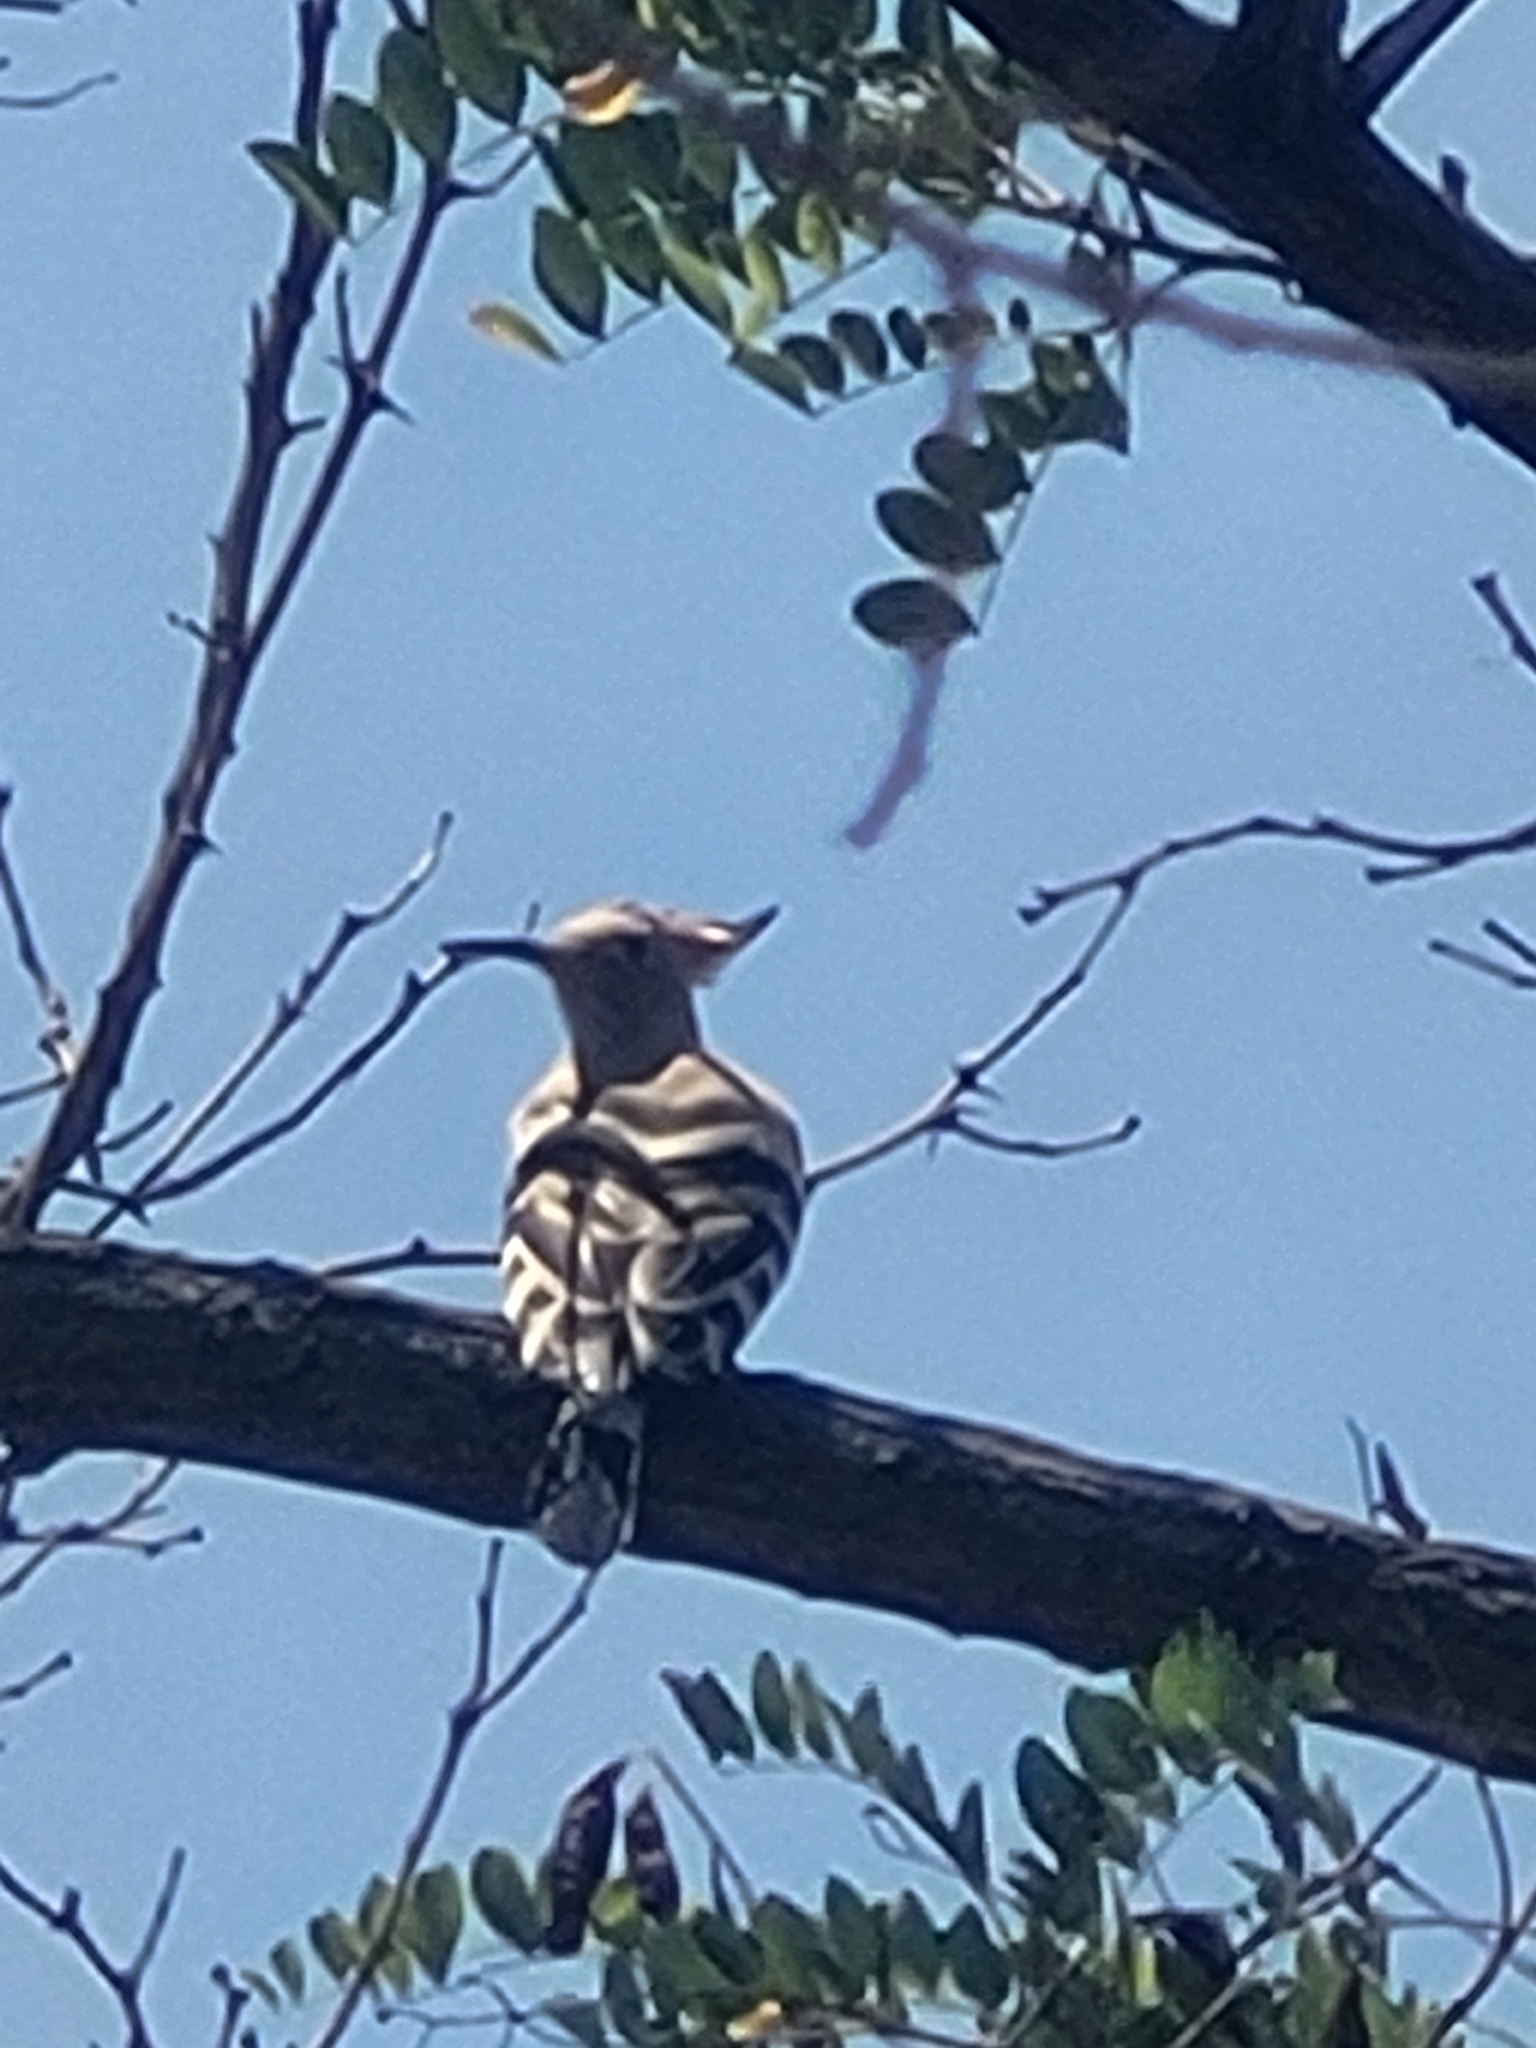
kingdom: Animalia
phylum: Chordata
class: Aves
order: Bucerotiformes
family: Upupidae
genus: Upupa
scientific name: Upupa epops
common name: Eurasian hoopoe
